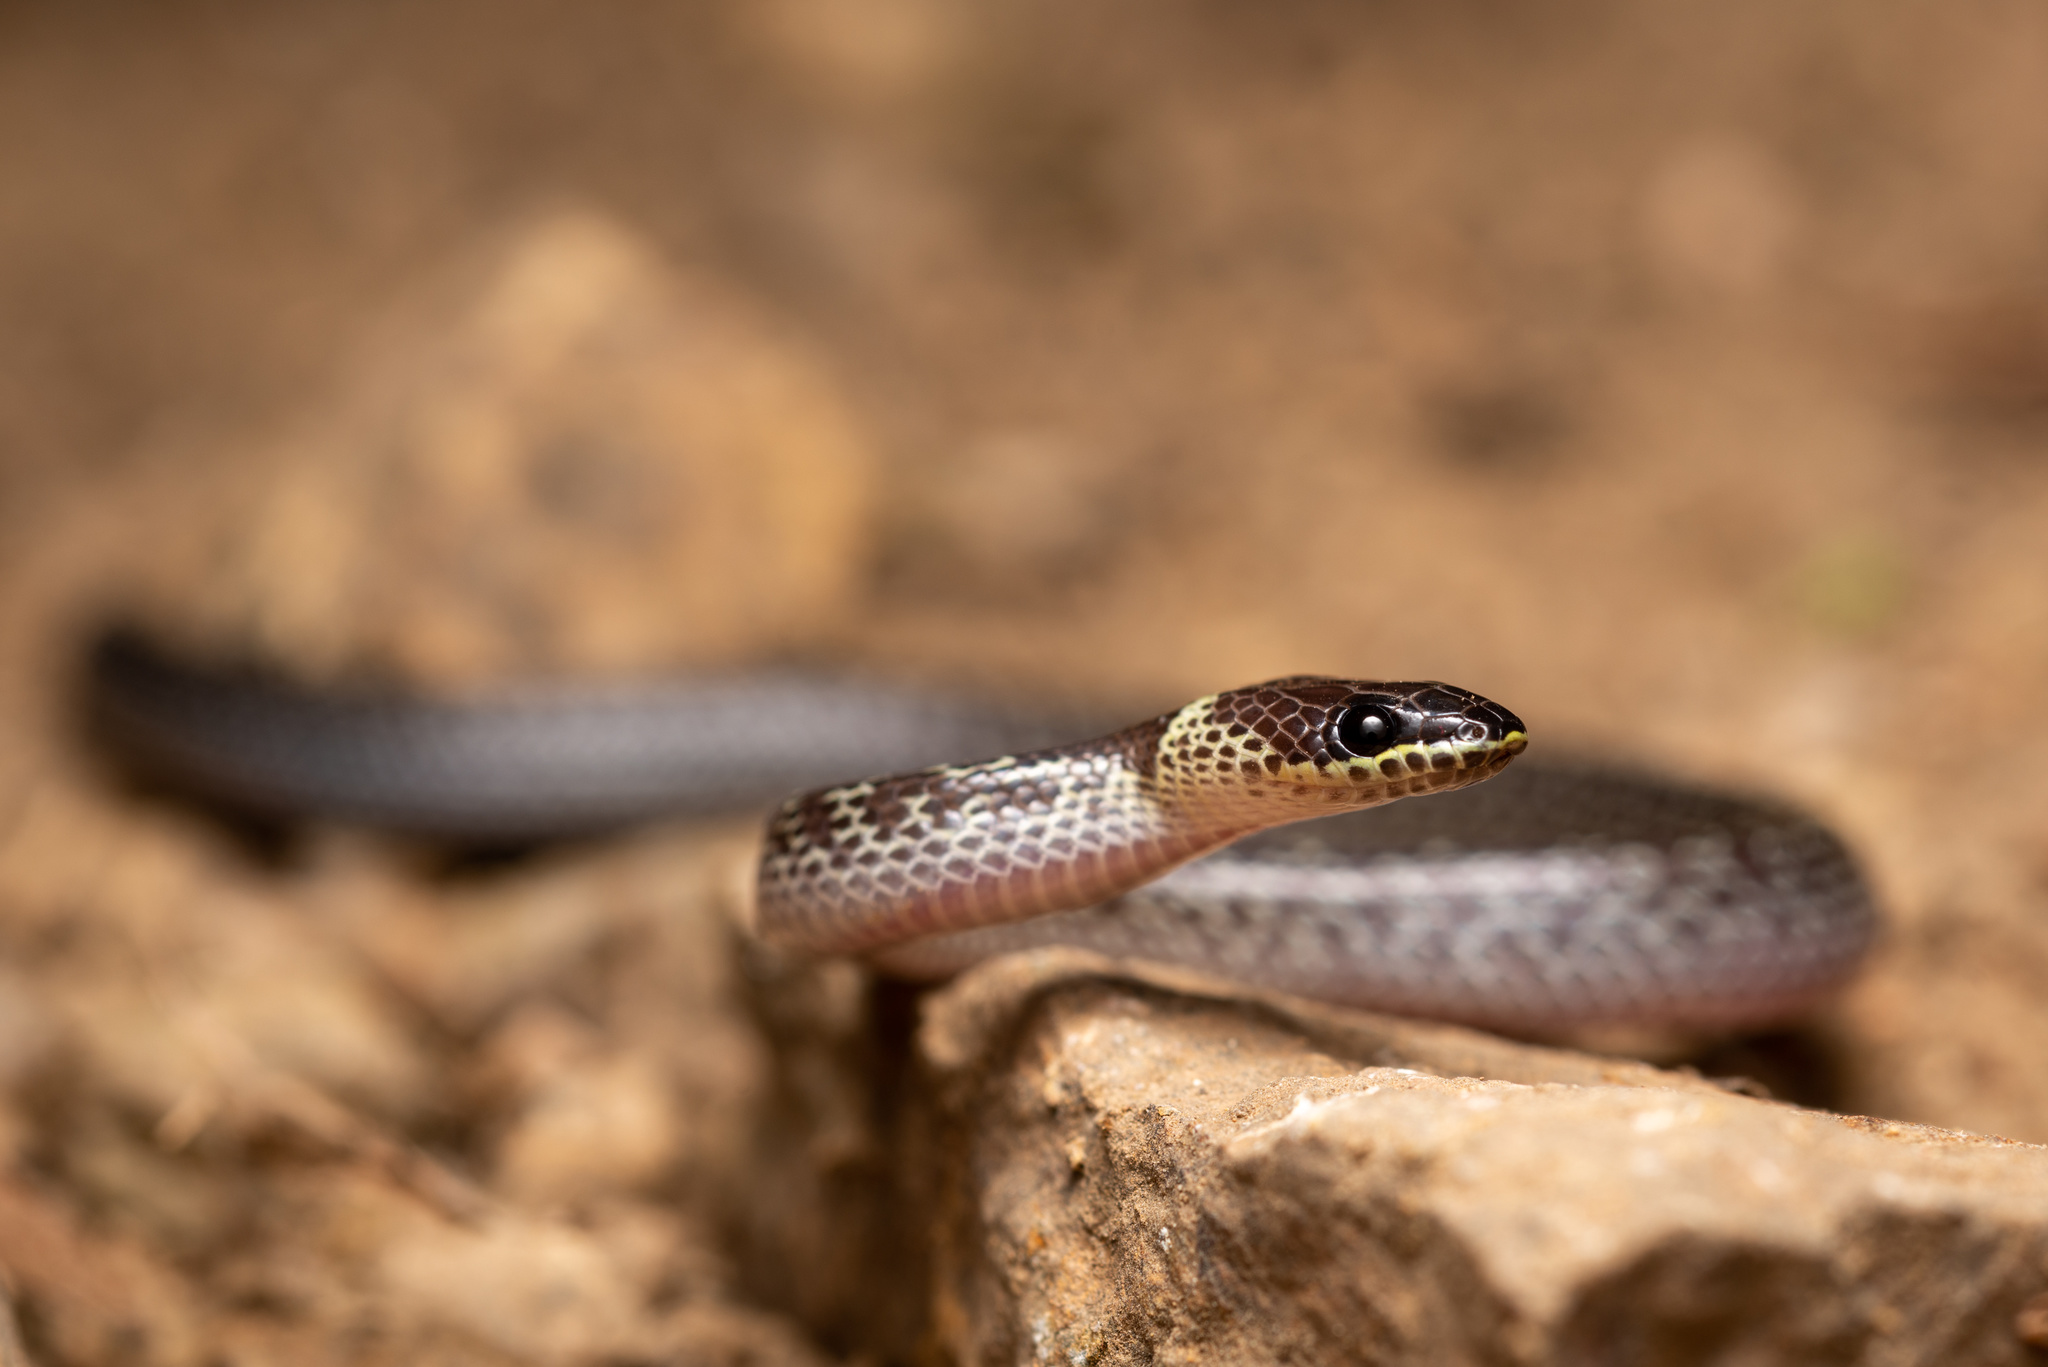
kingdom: Animalia
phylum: Chordata
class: Squamata
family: Colubridae
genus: Lycodon
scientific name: Lycodon capucinus
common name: Common wold snake/house snake
